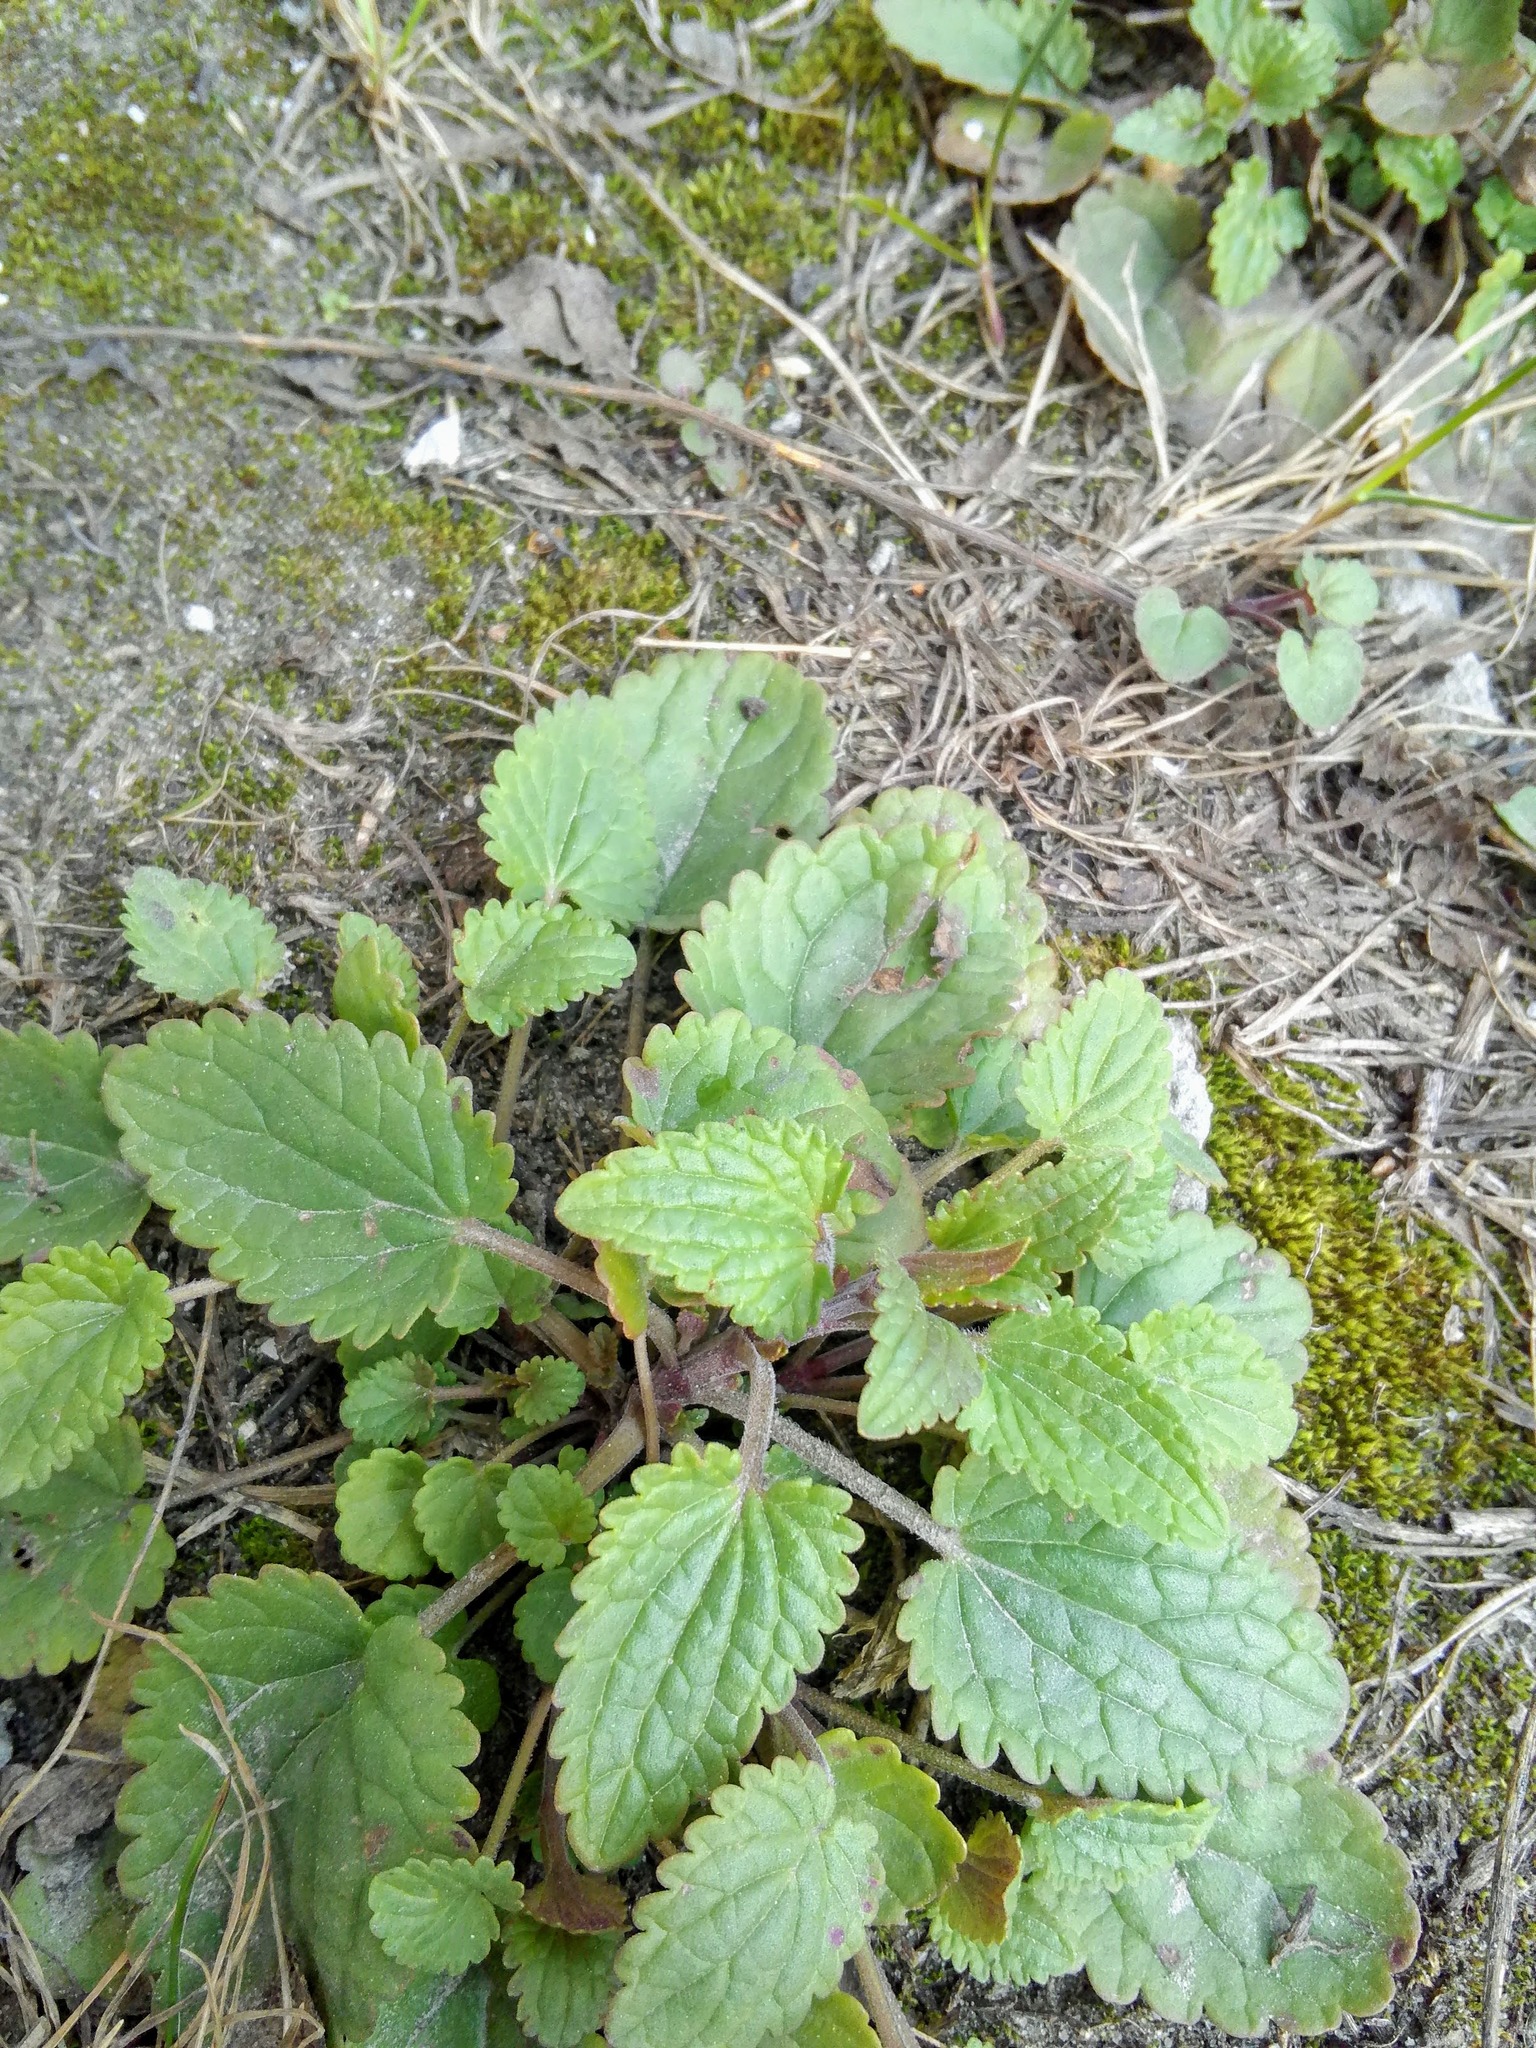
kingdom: Plantae
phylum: Tracheophyta
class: Magnoliopsida
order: Lamiales
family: Lamiaceae
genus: Dracocephalum
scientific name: Dracocephalum thymiflorum
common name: Thymeleaf dragonhead
